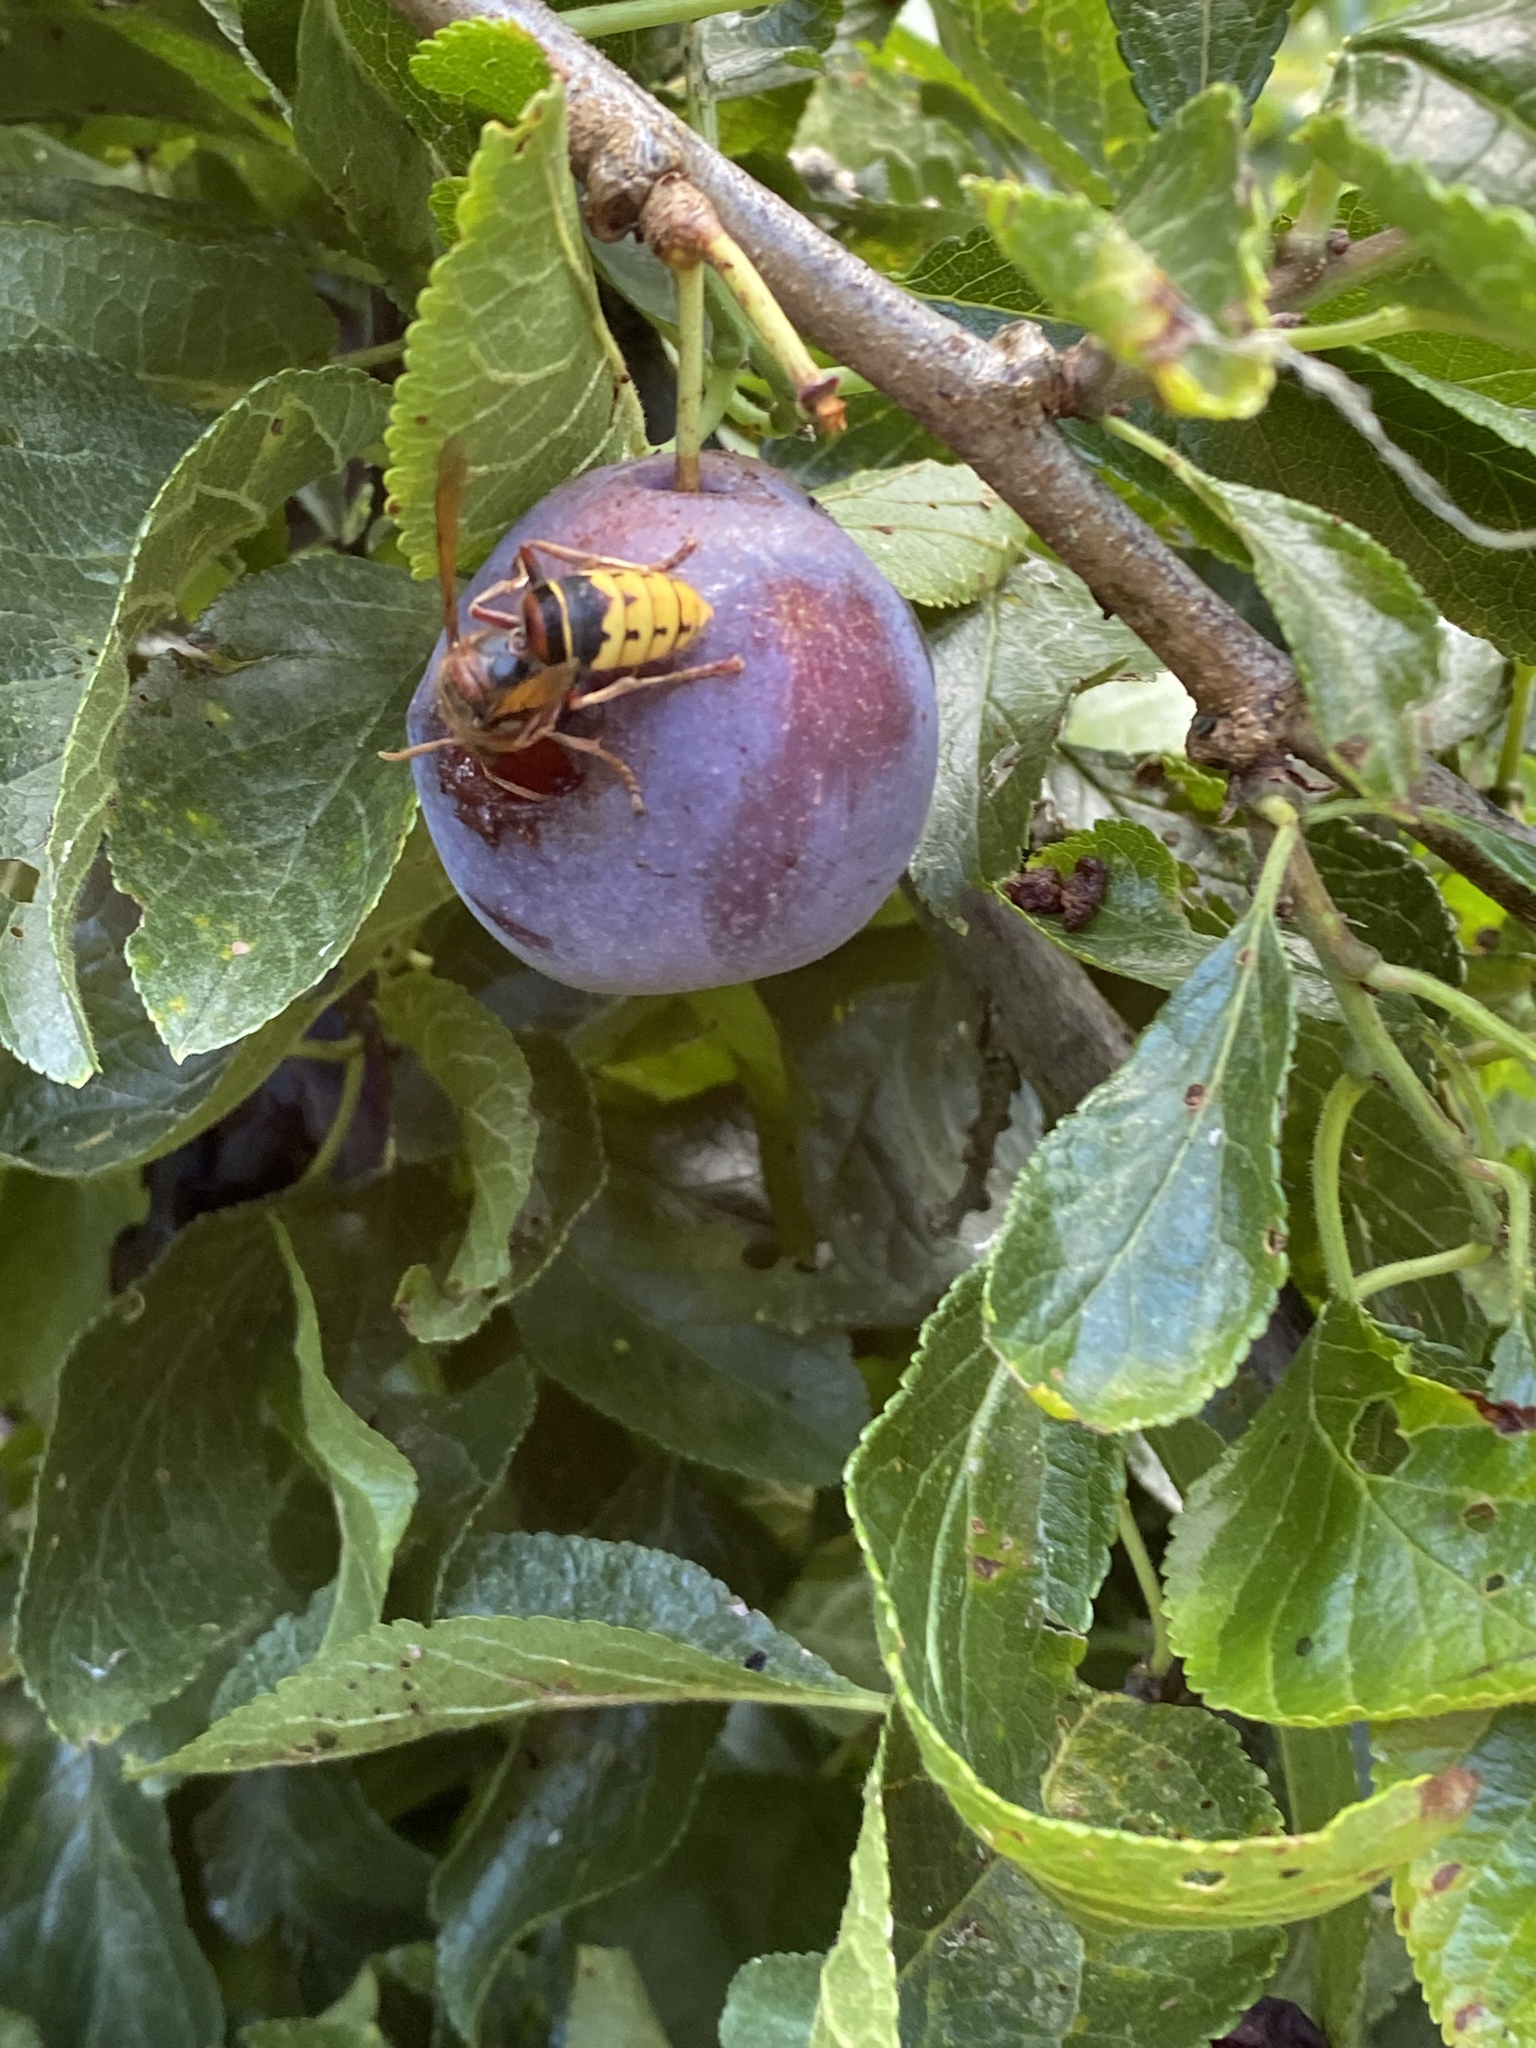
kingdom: Animalia
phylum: Arthropoda
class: Insecta
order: Hymenoptera
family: Vespidae
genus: Vespa
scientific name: Vespa crabro
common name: Hornet
